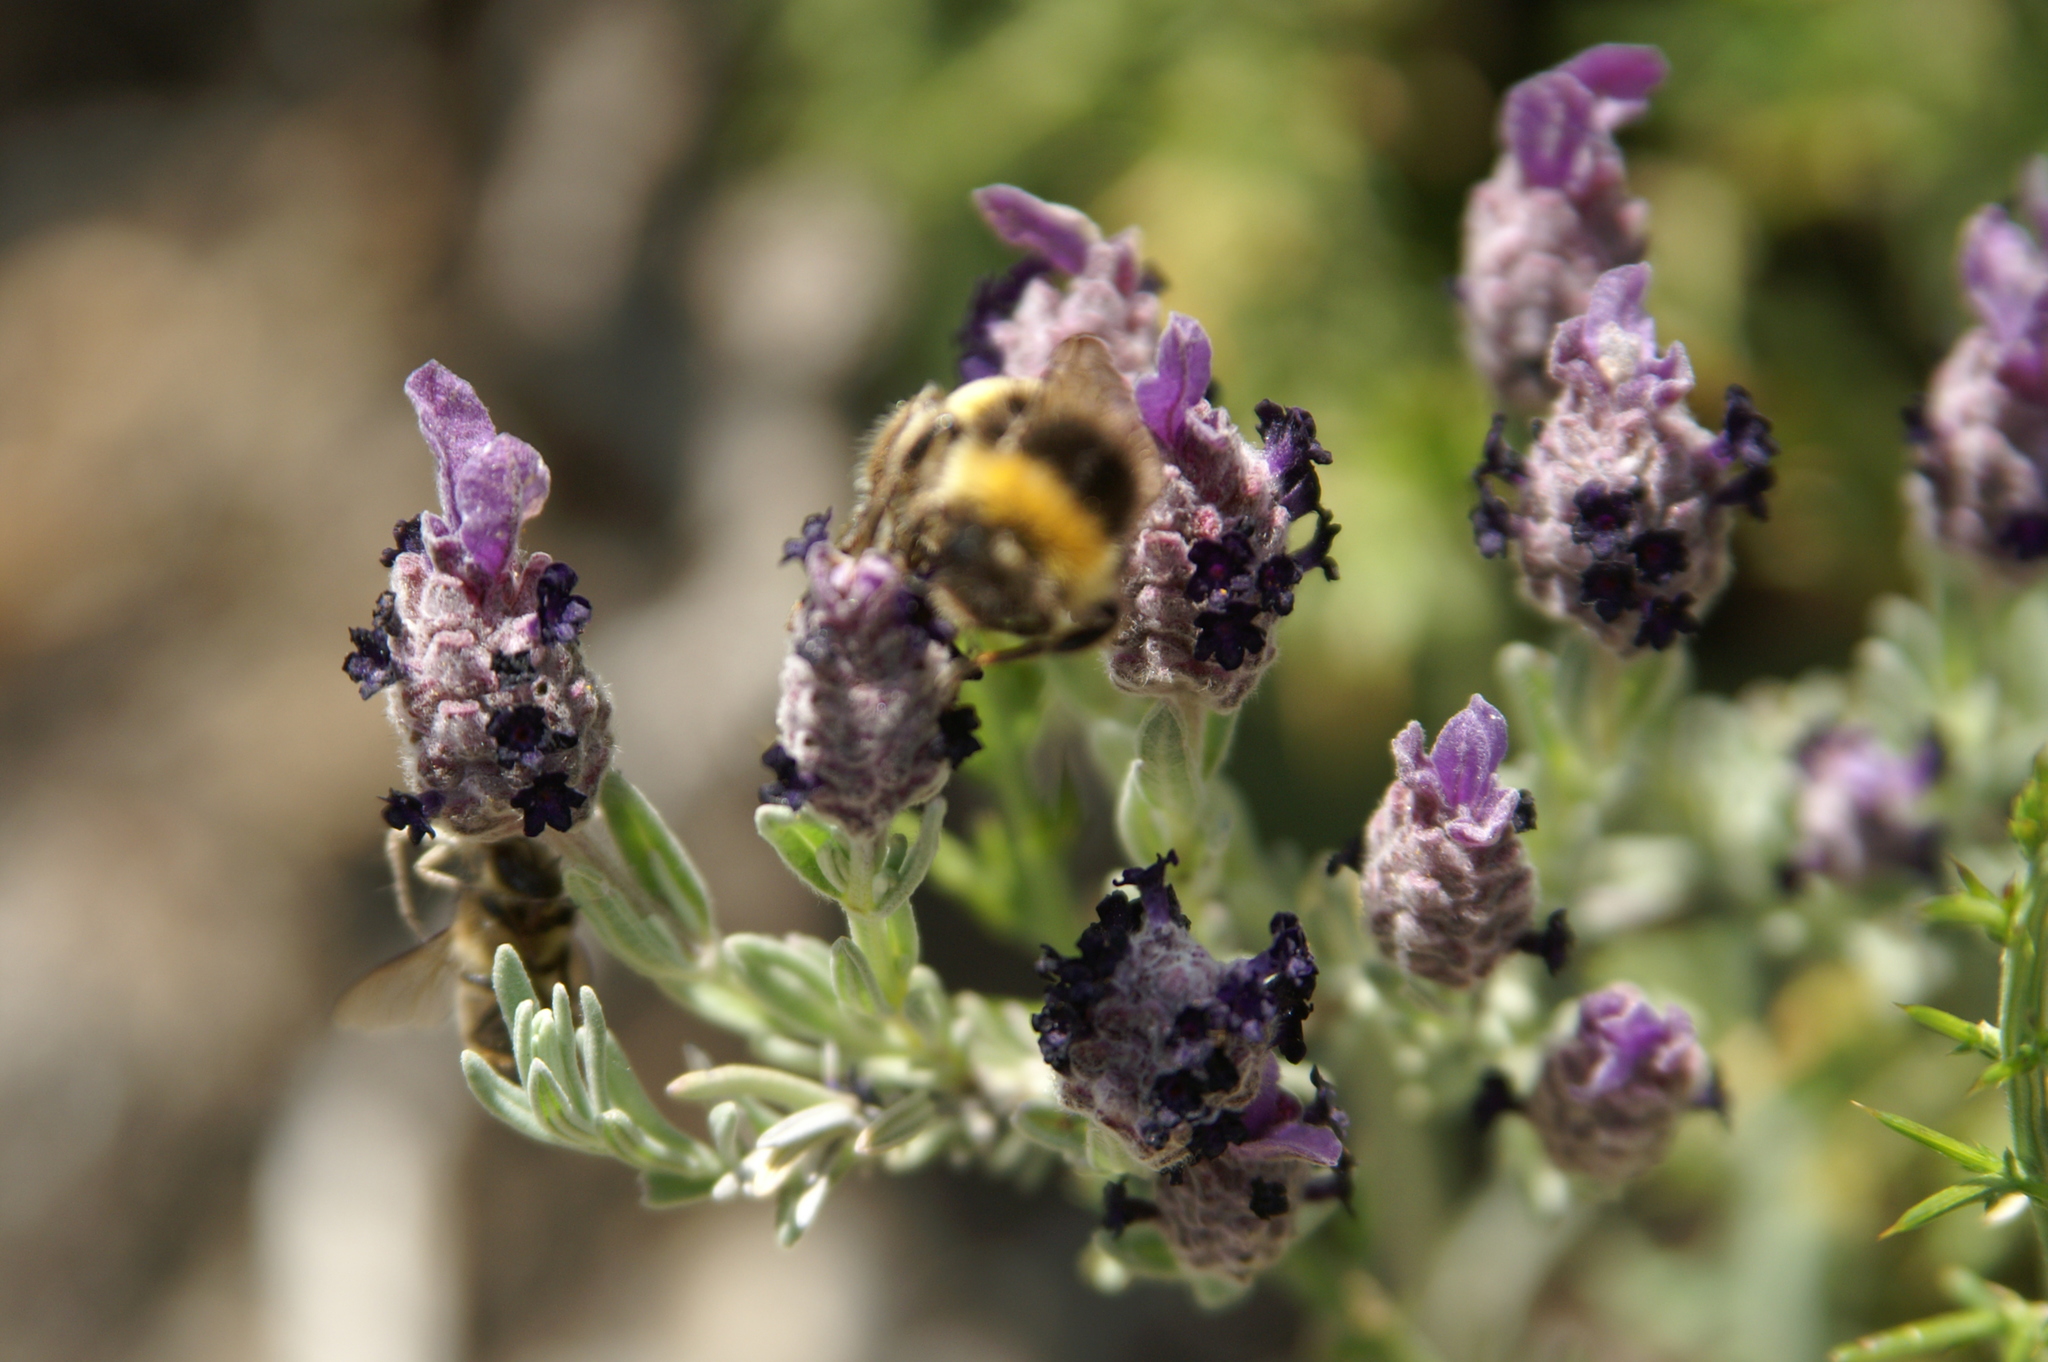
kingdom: Plantae
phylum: Tracheophyta
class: Magnoliopsida
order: Lamiales
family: Lamiaceae
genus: Lavandula
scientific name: Lavandula stoechas
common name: French lavender
